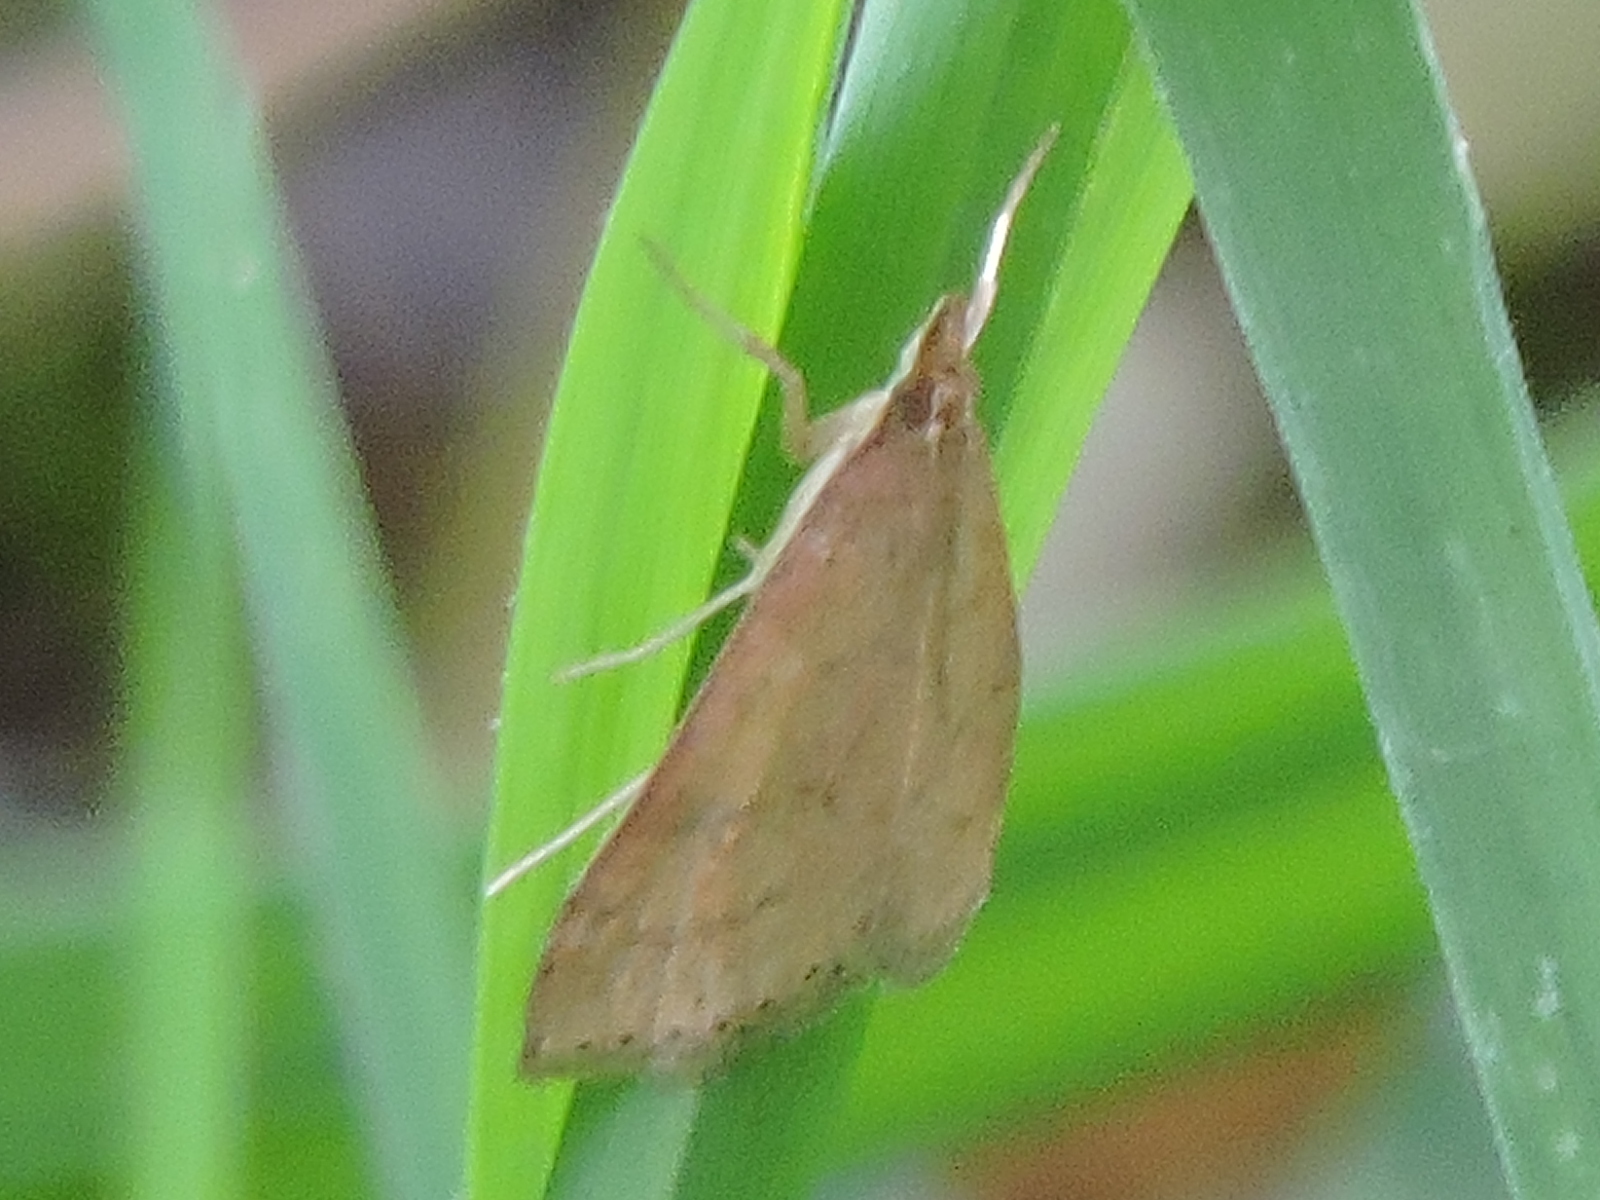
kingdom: Animalia
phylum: Arthropoda
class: Insecta
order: Lepidoptera
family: Crambidae
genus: Udea
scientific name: Udea rubigalis
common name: Celery leaftier moth
